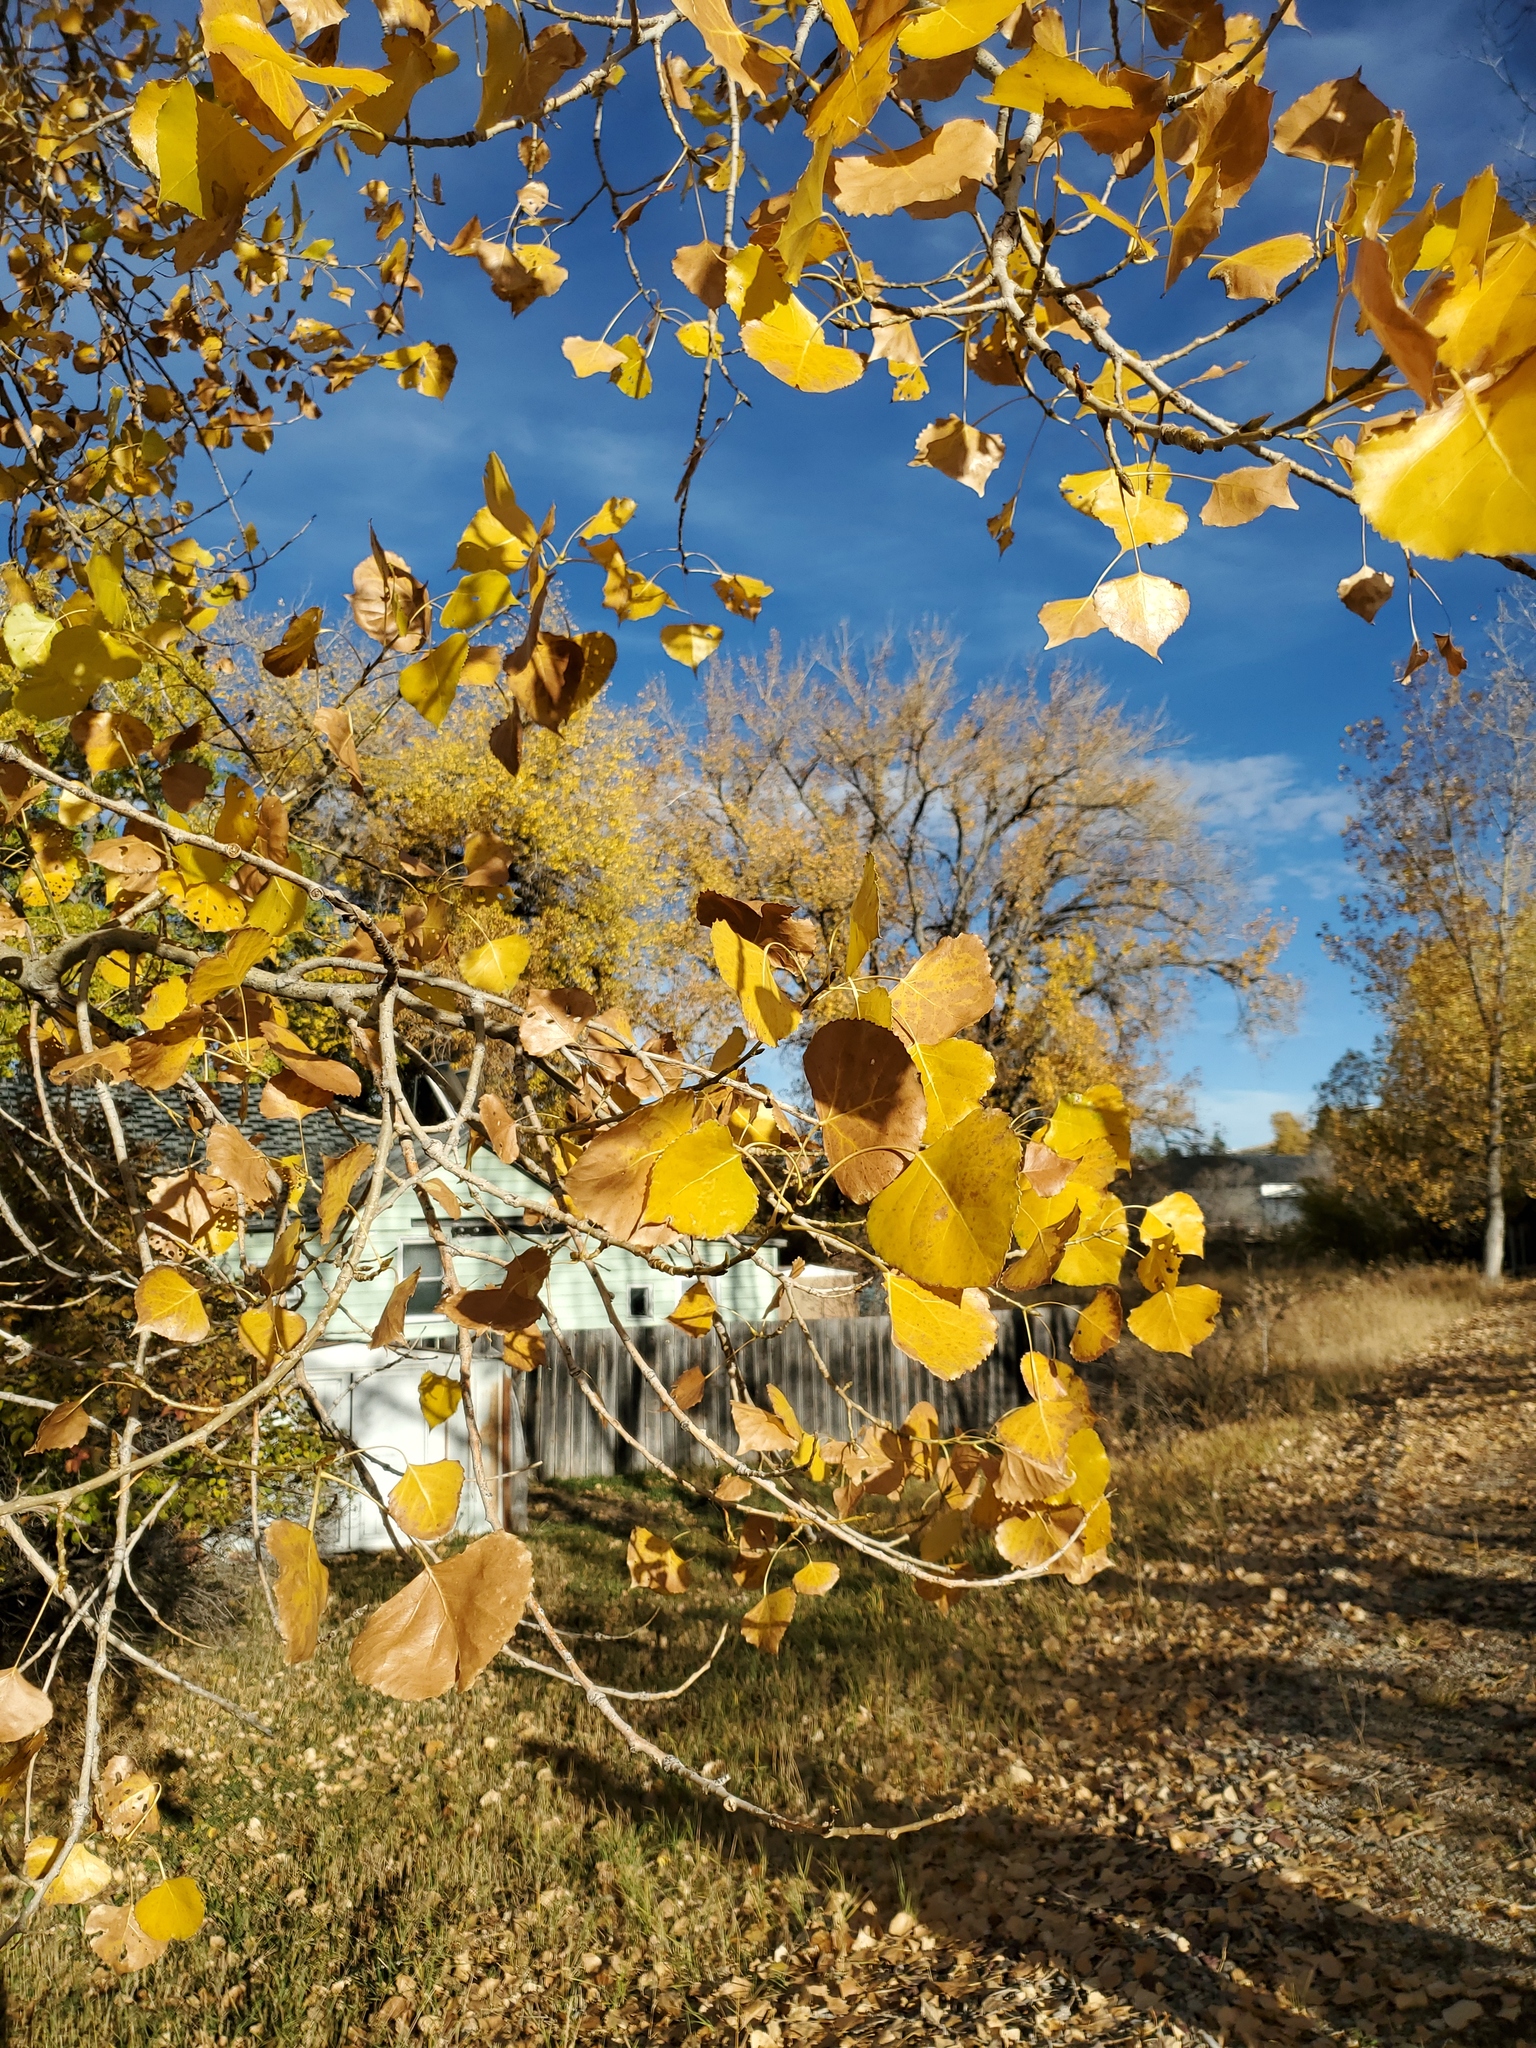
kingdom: Plantae
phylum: Tracheophyta
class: Magnoliopsida
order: Malpighiales
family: Salicaceae
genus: Populus
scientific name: Populus deltoides
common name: Eastern cottonwood
